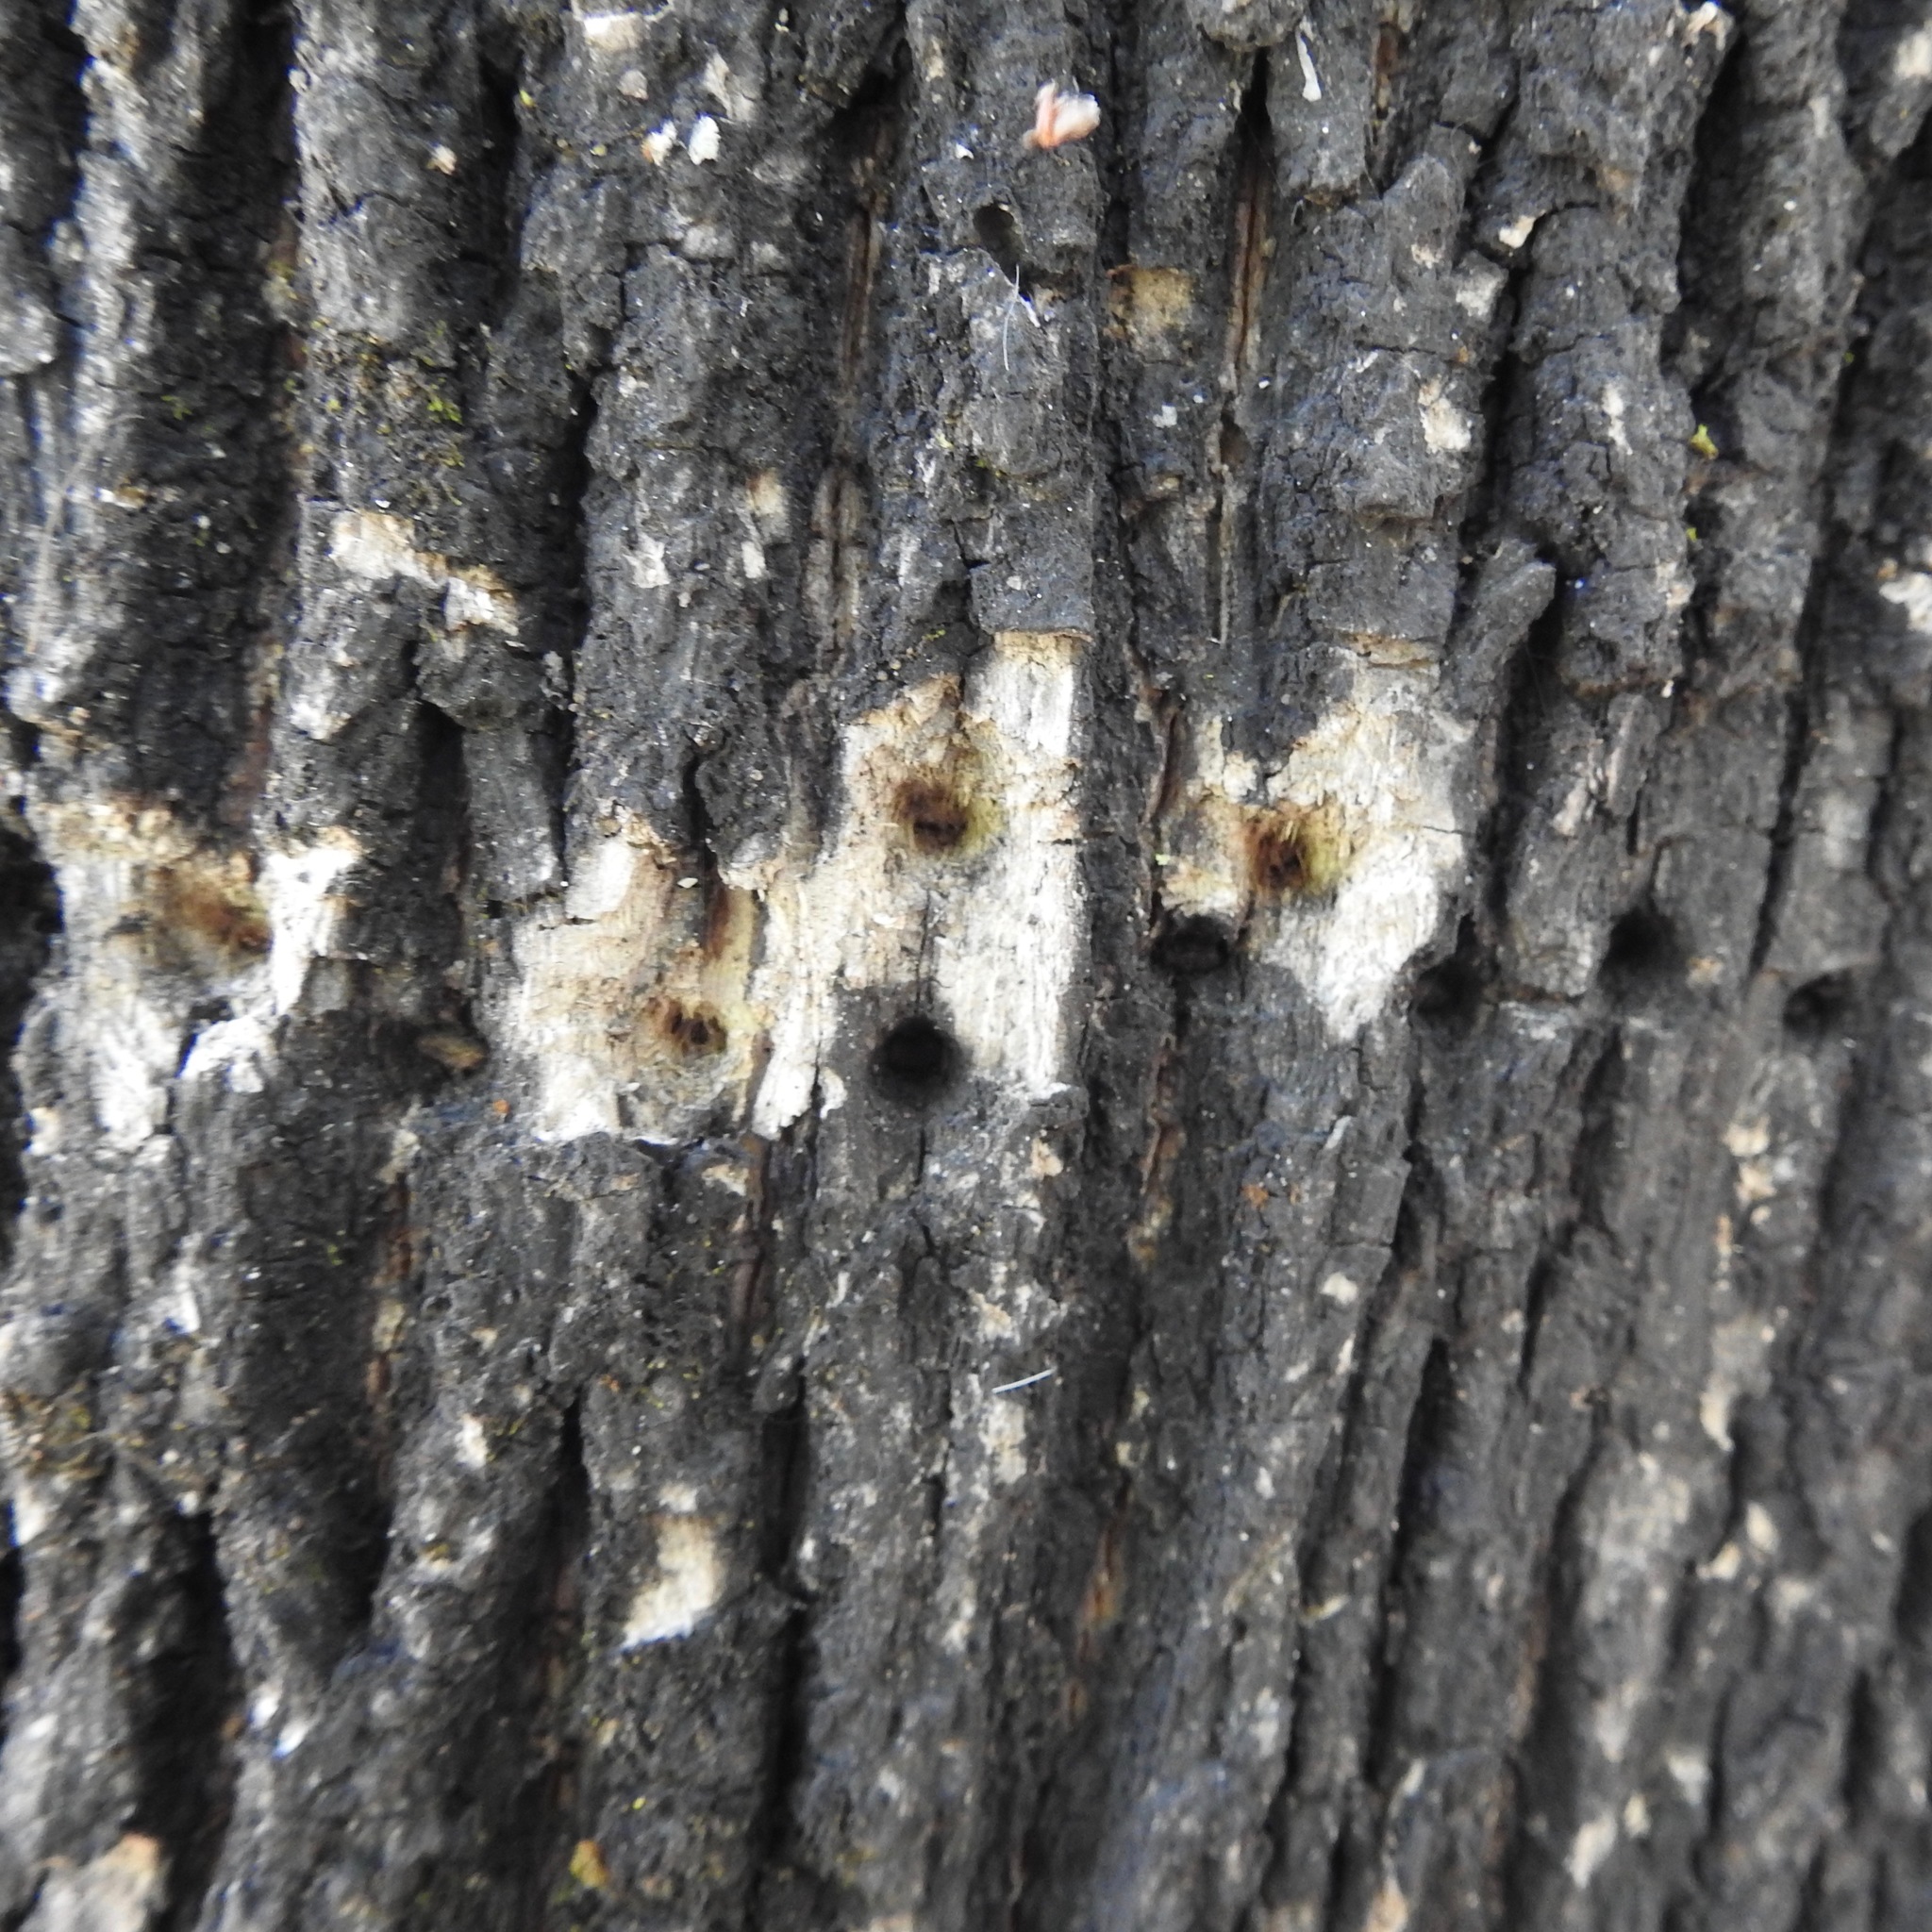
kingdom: Animalia
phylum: Chordata
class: Aves
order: Piciformes
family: Picidae
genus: Sphyrapicus
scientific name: Sphyrapicus
